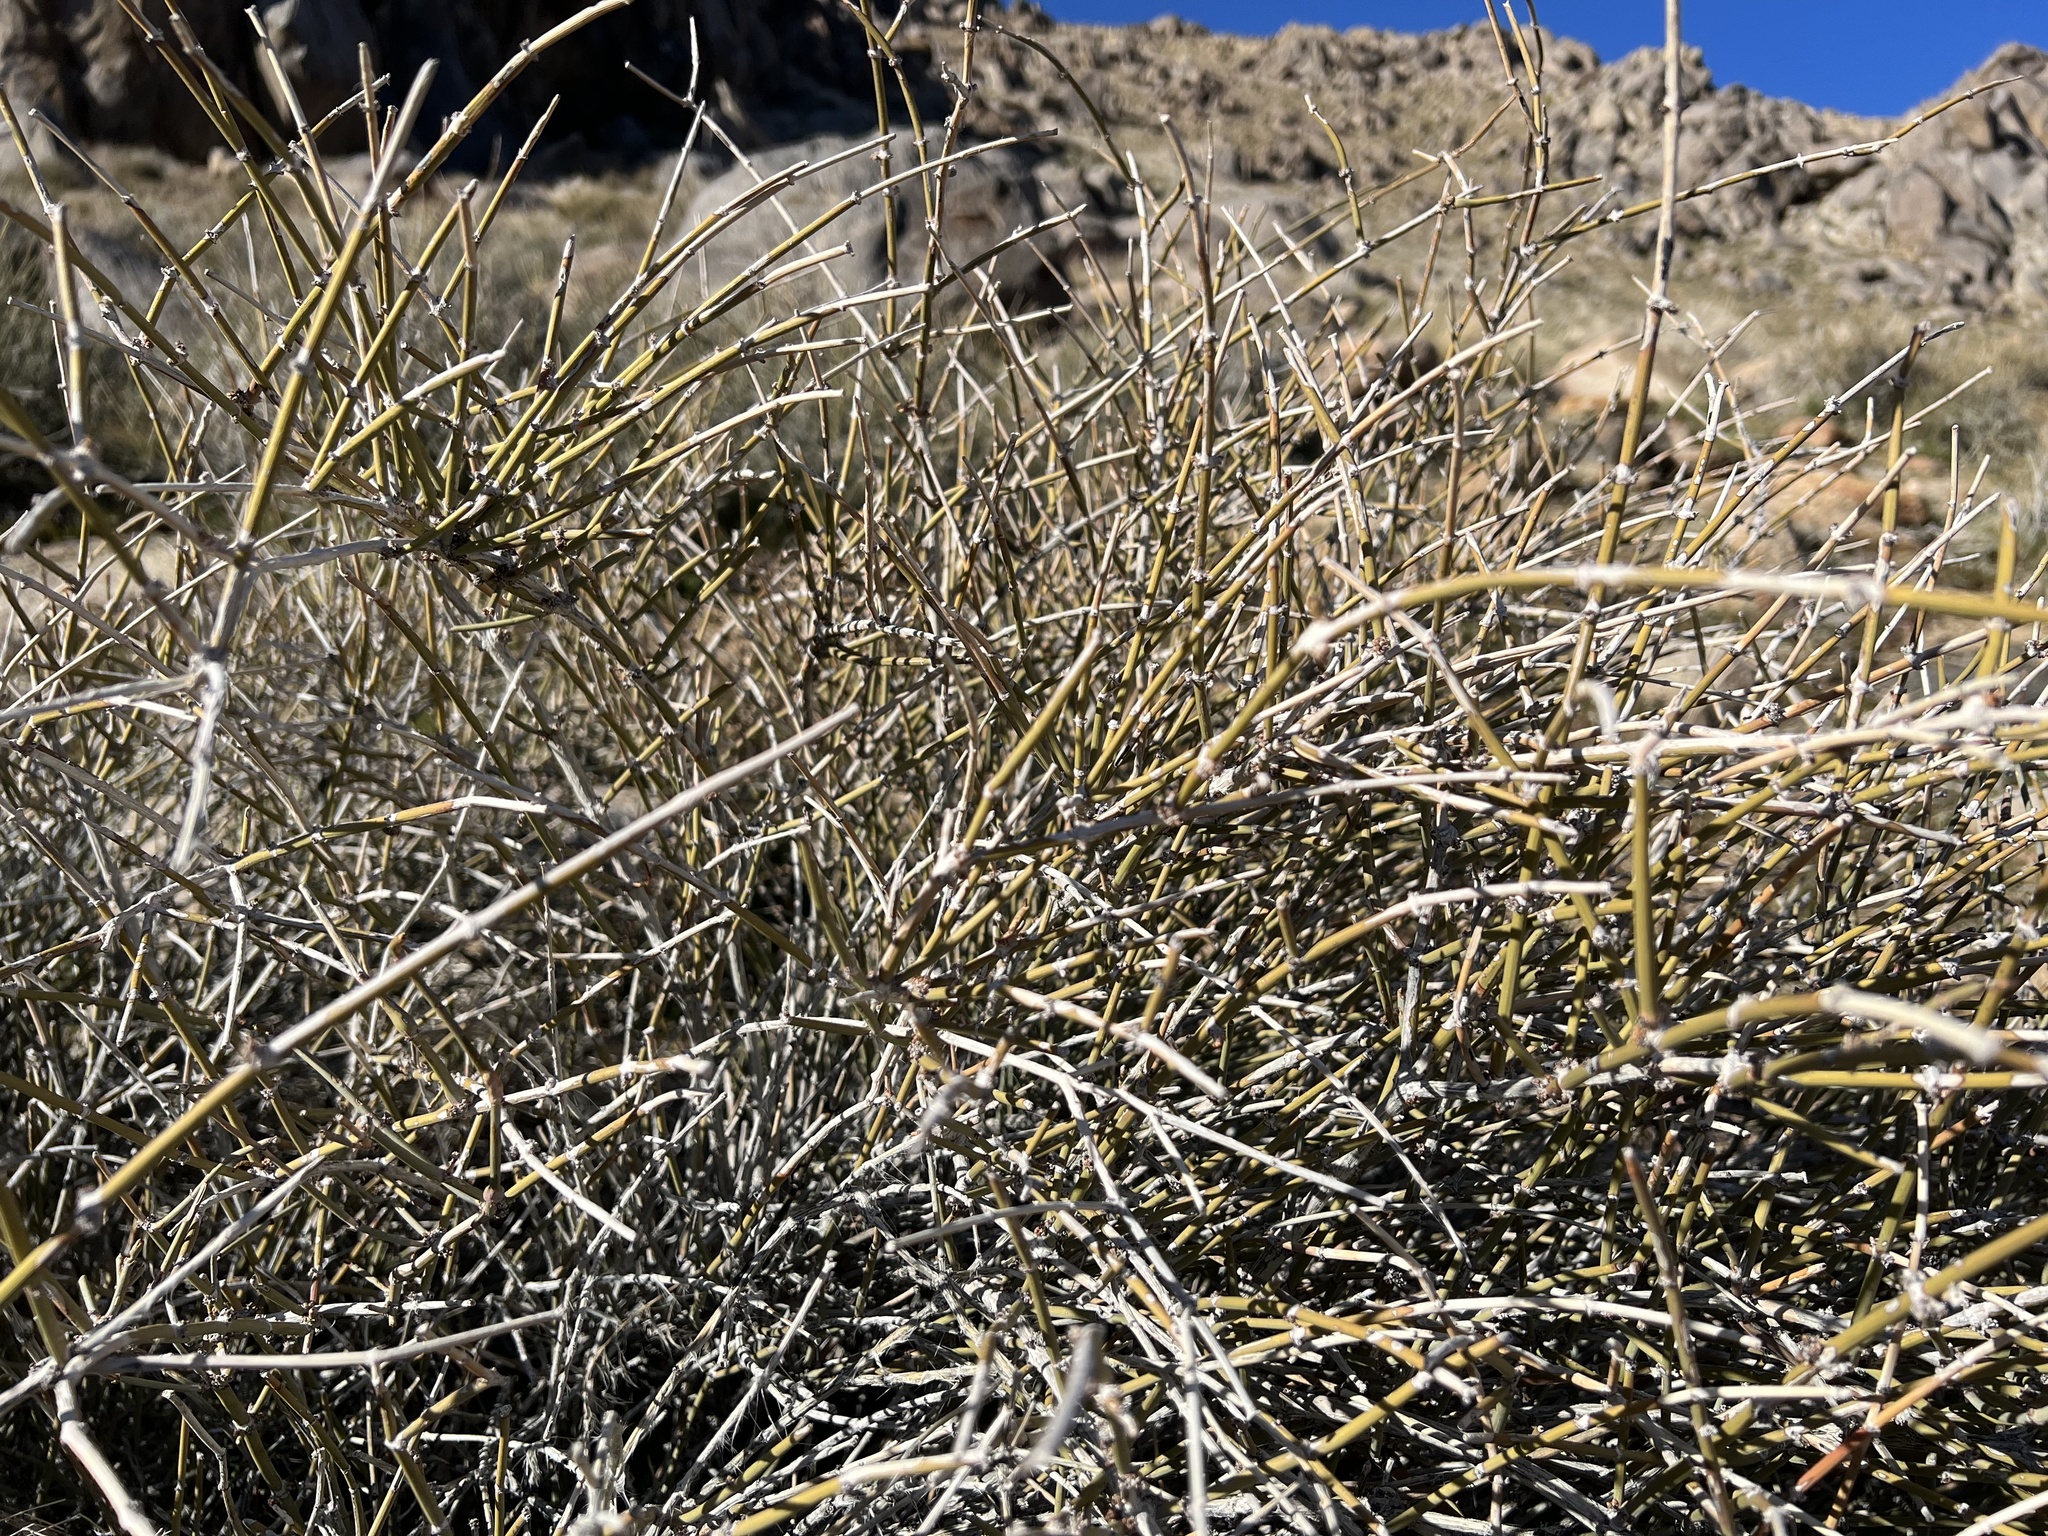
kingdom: Plantae
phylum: Tracheophyta
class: Gnetopsida
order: Ephedrales
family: Ephedraceae
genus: Ephedra
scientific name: Ephedra nevadensis
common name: Gray ephedra
